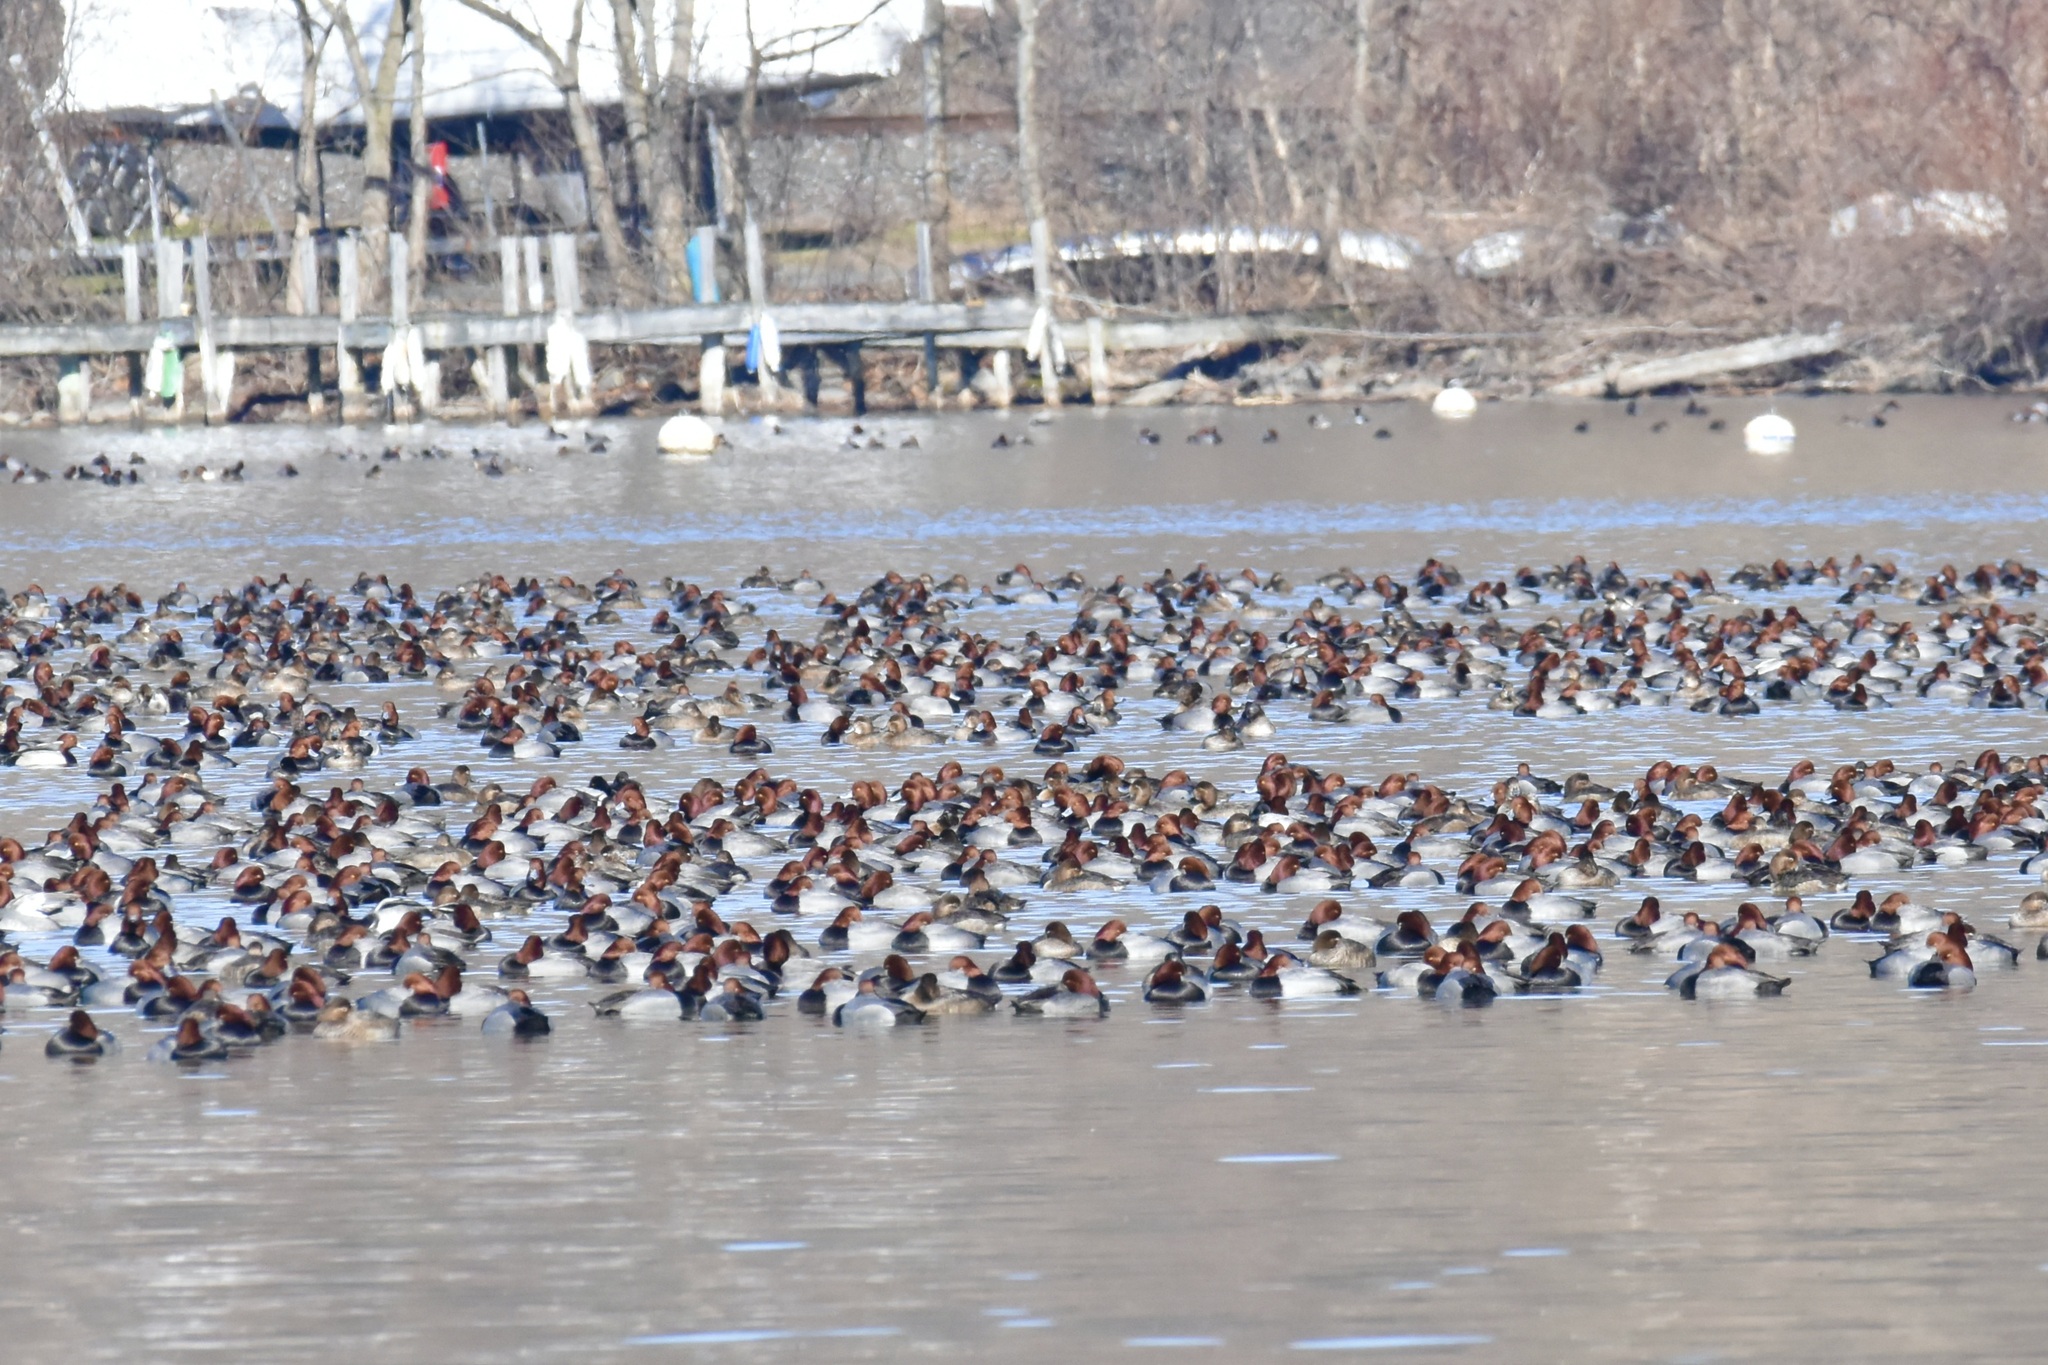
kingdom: Animalia
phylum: Chordata
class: Aves
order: Anseriformes
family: Anatidae
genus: Aythya
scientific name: Aythya americana
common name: Redhead
